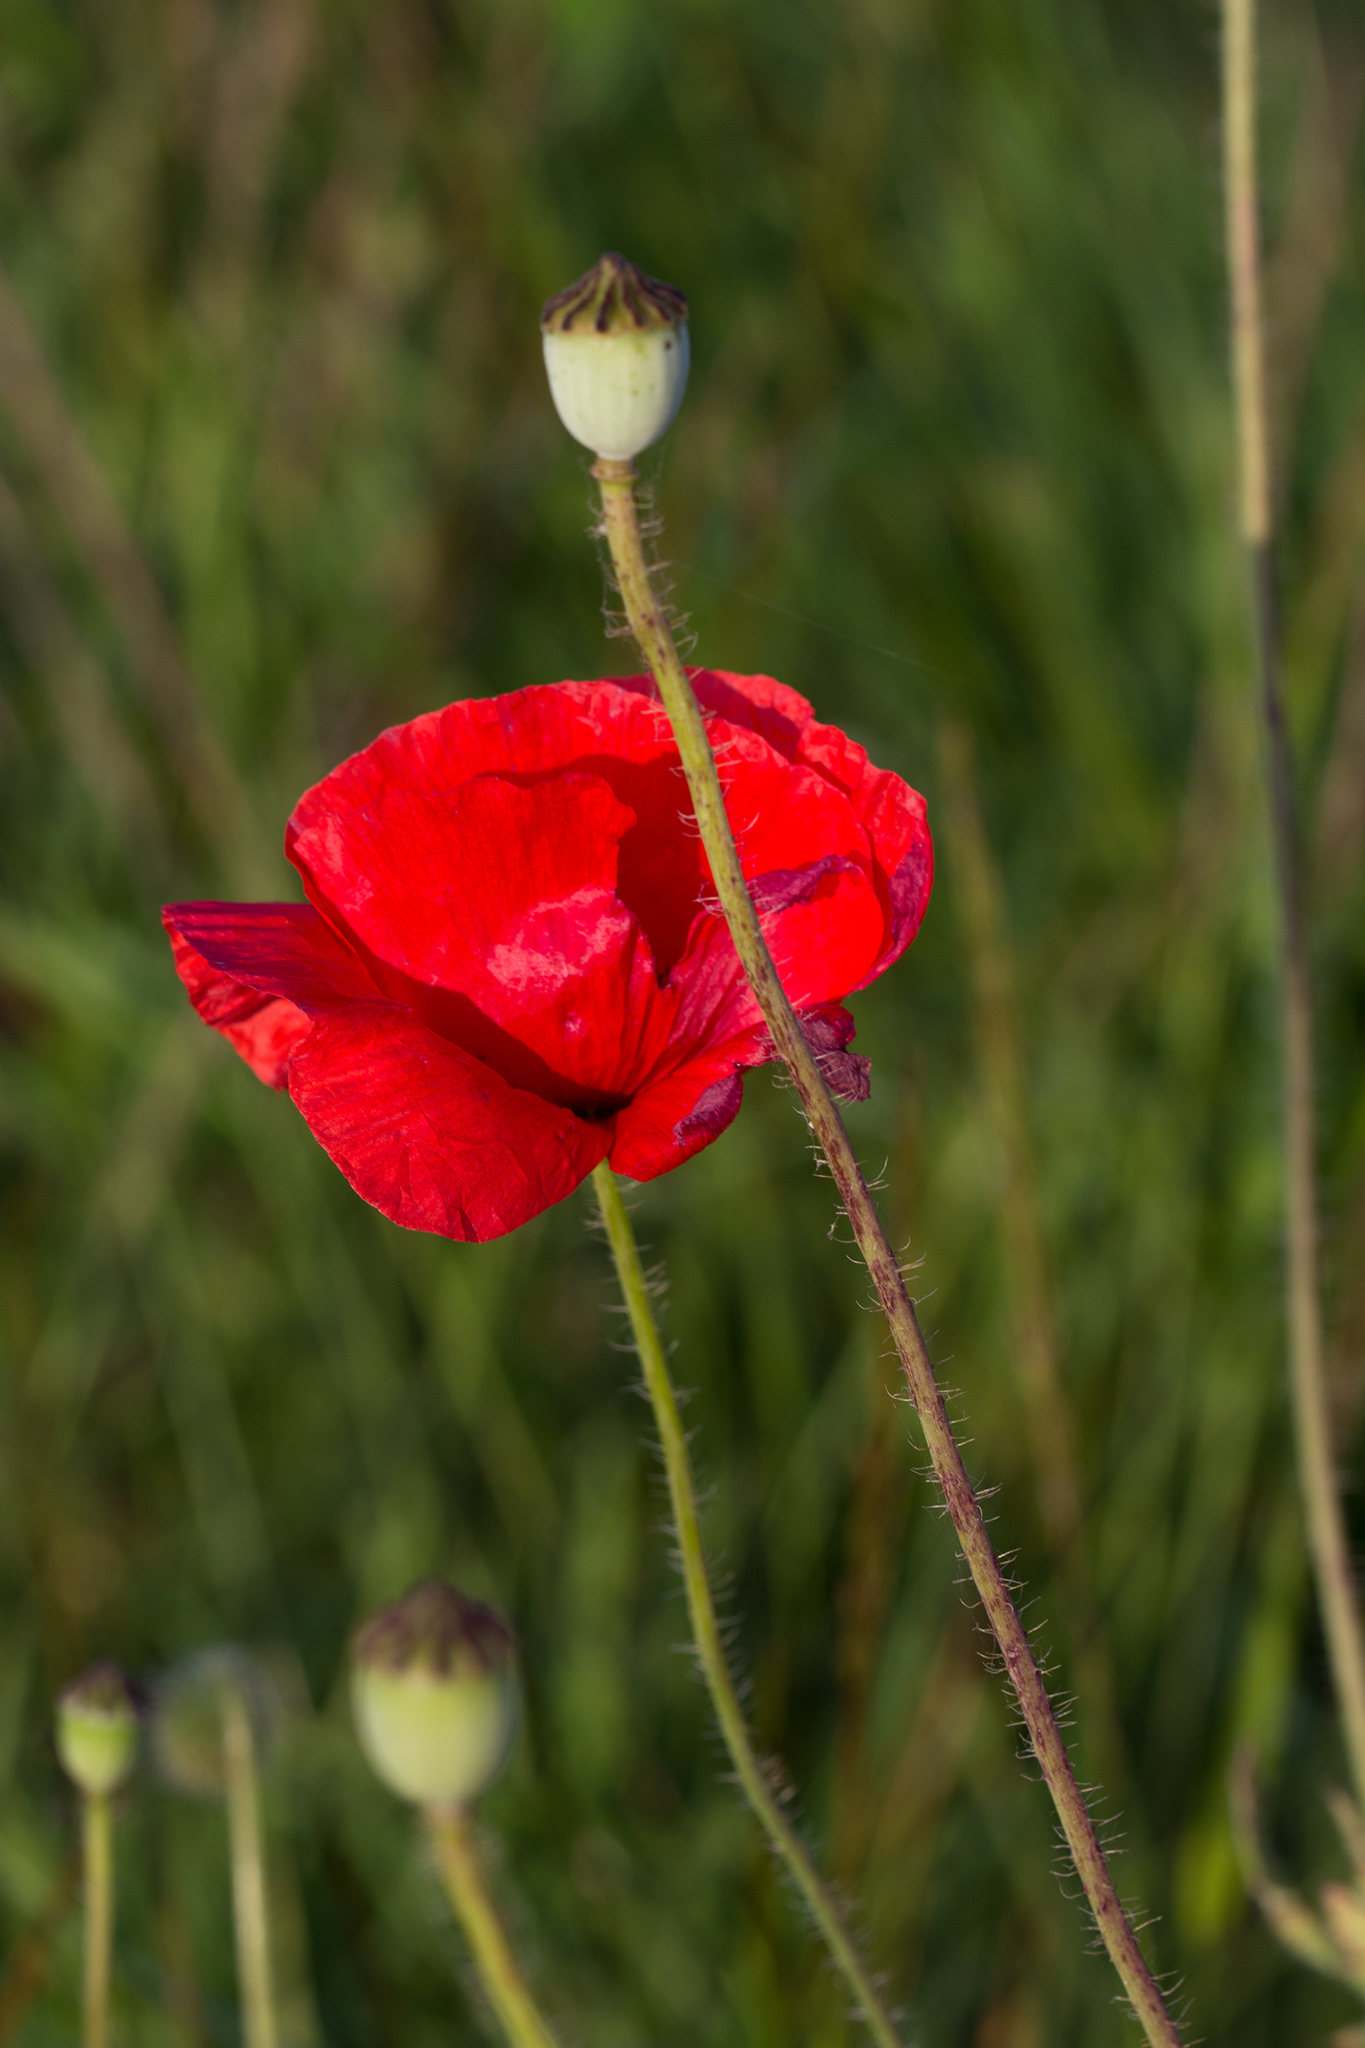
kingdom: Plantae
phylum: Tracheophyta
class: Magnoliopsida
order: Ranunculales
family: Papaveraceae
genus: Papaver
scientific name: Papaver rhoeas
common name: Corn poppy
